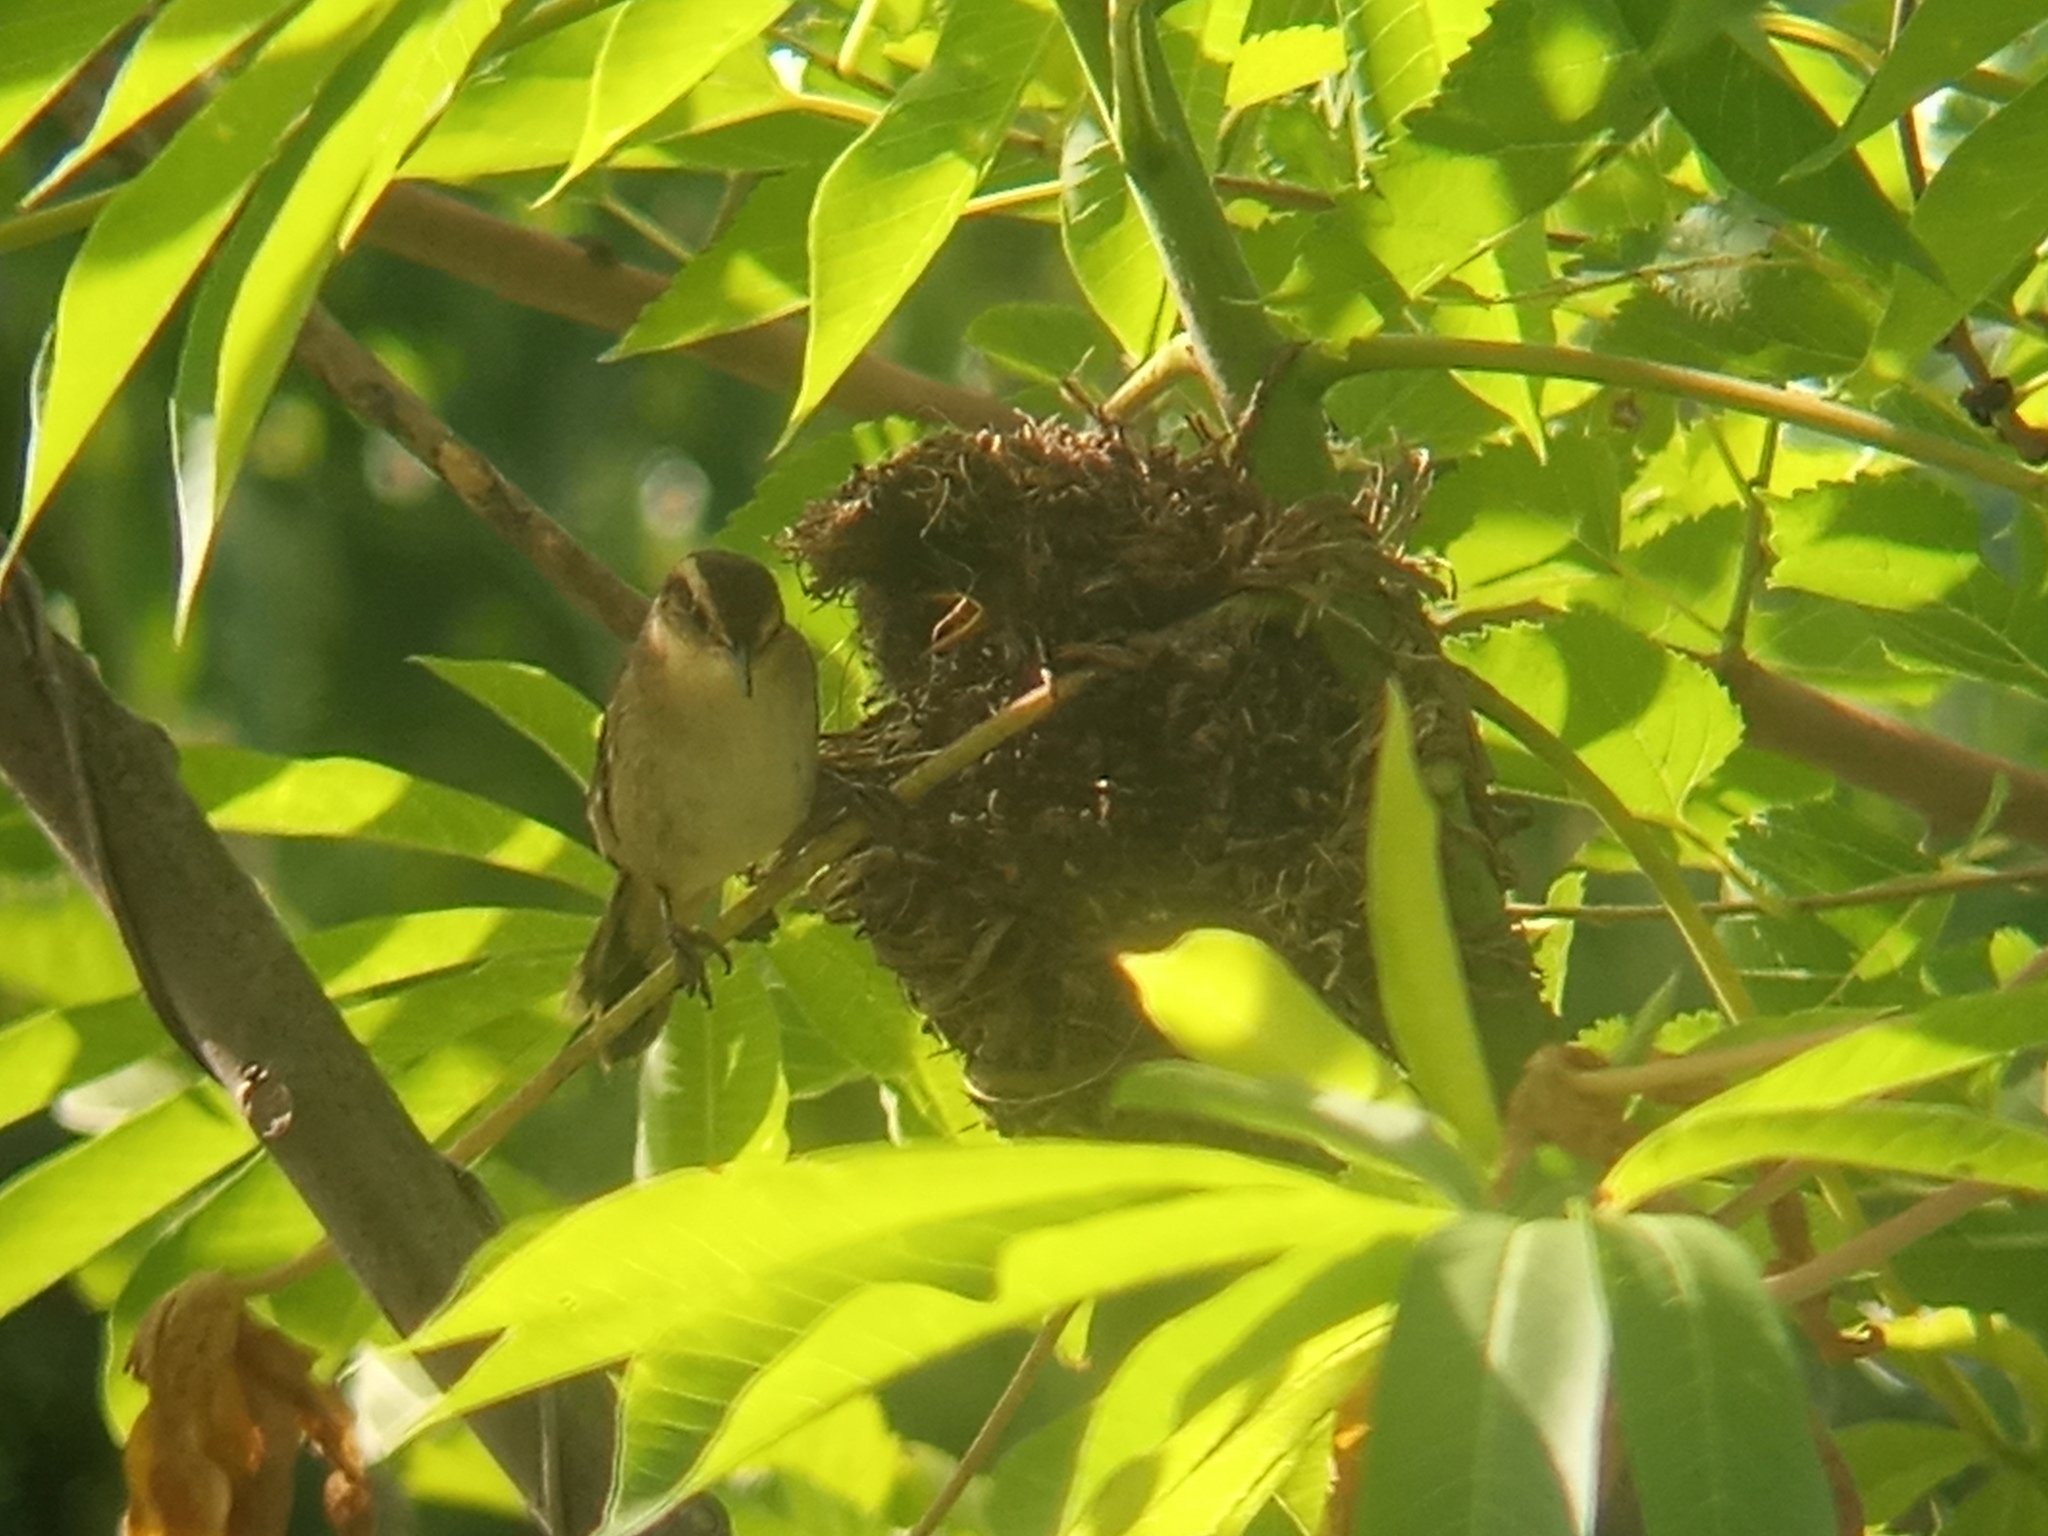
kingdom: Animalia
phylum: Chordata
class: Aves
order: Passeriformes
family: Furnariidae
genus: Phleocryptes
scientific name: Phleocryptes melanops
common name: Wren-like rushbird
